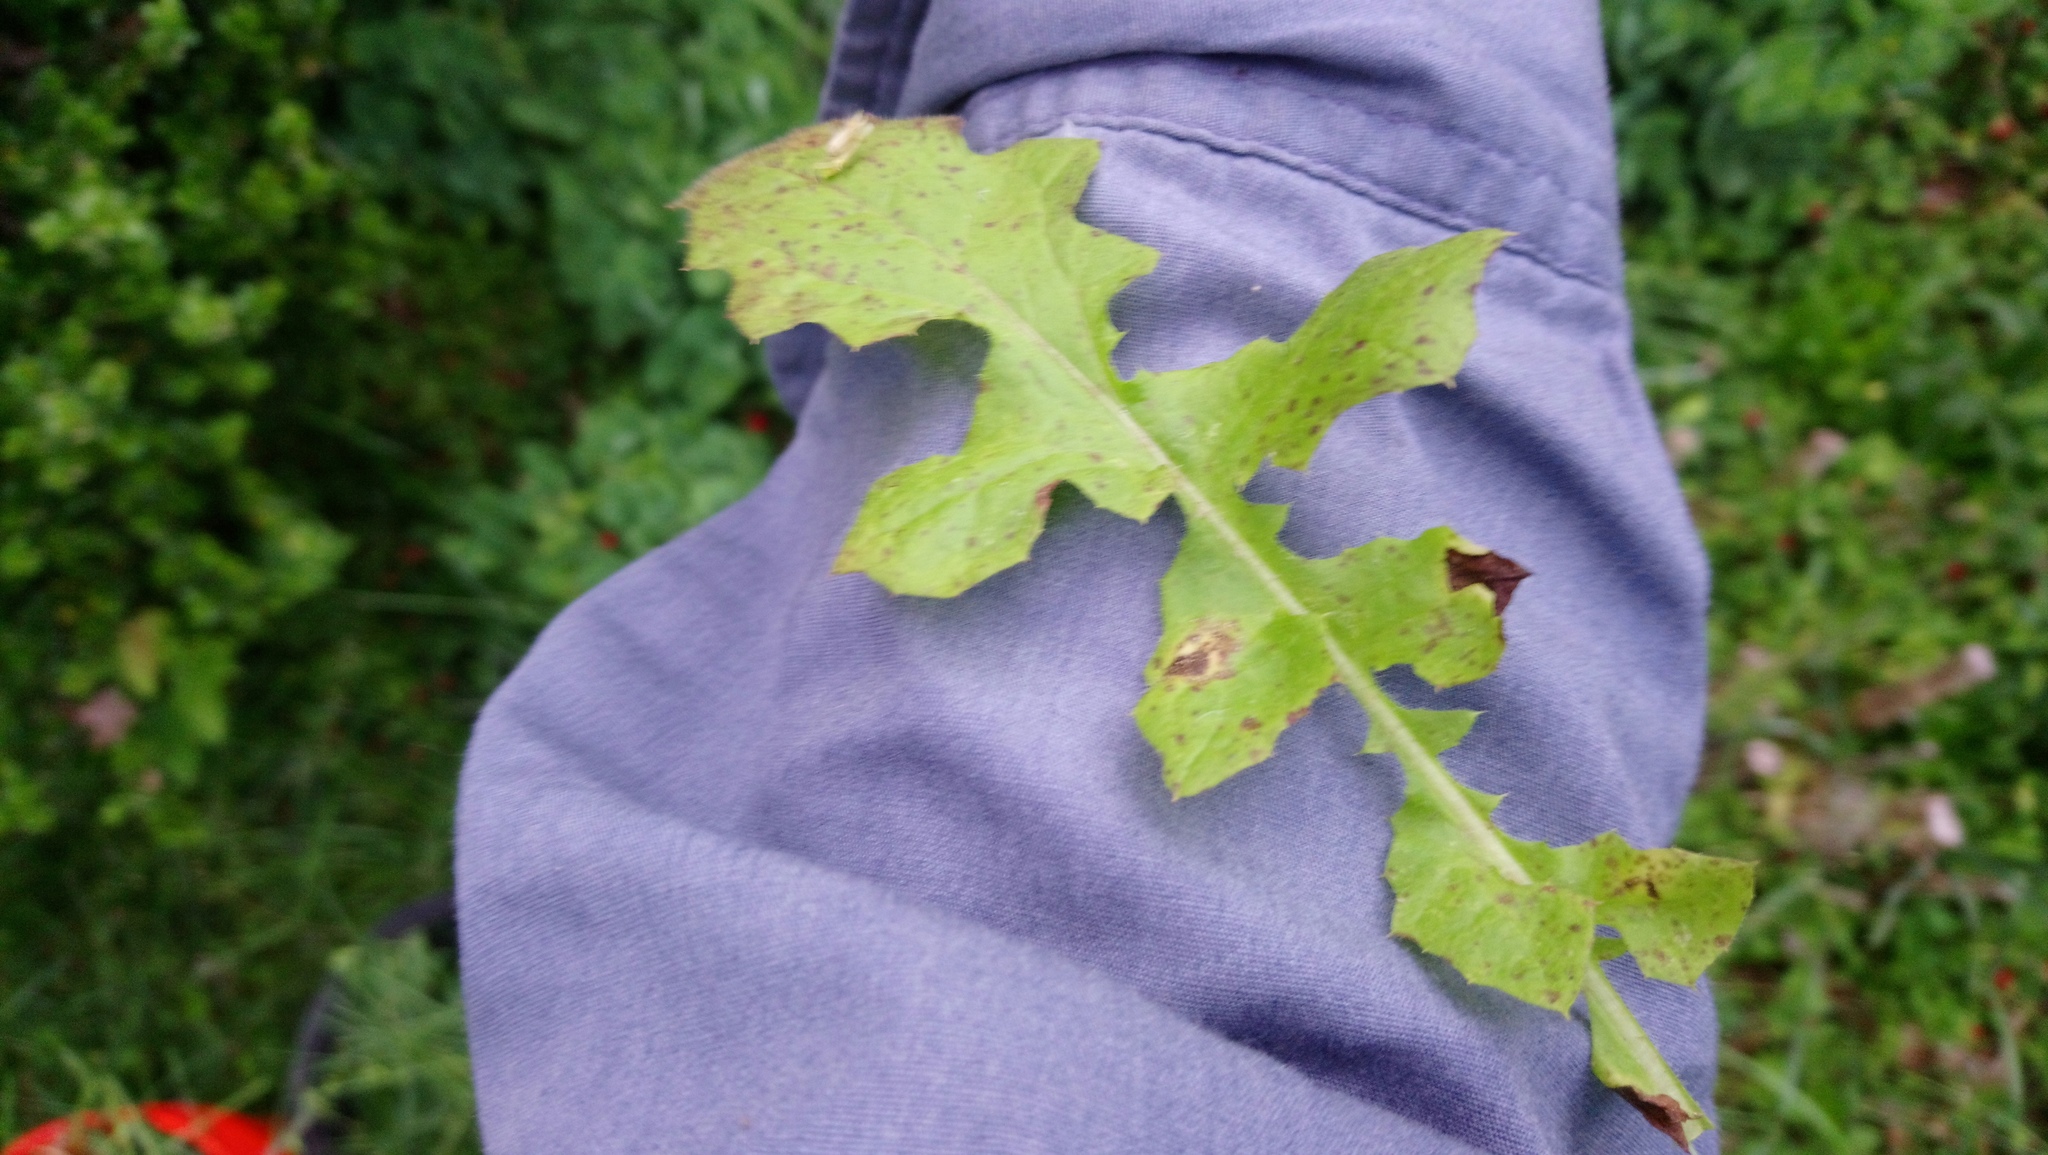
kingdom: Plantae
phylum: Tracheophyta
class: Magnoliopsida
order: Asterales
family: Asteraceae
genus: Youngia
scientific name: Youngia japonica
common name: Oriental false hawksbeard
